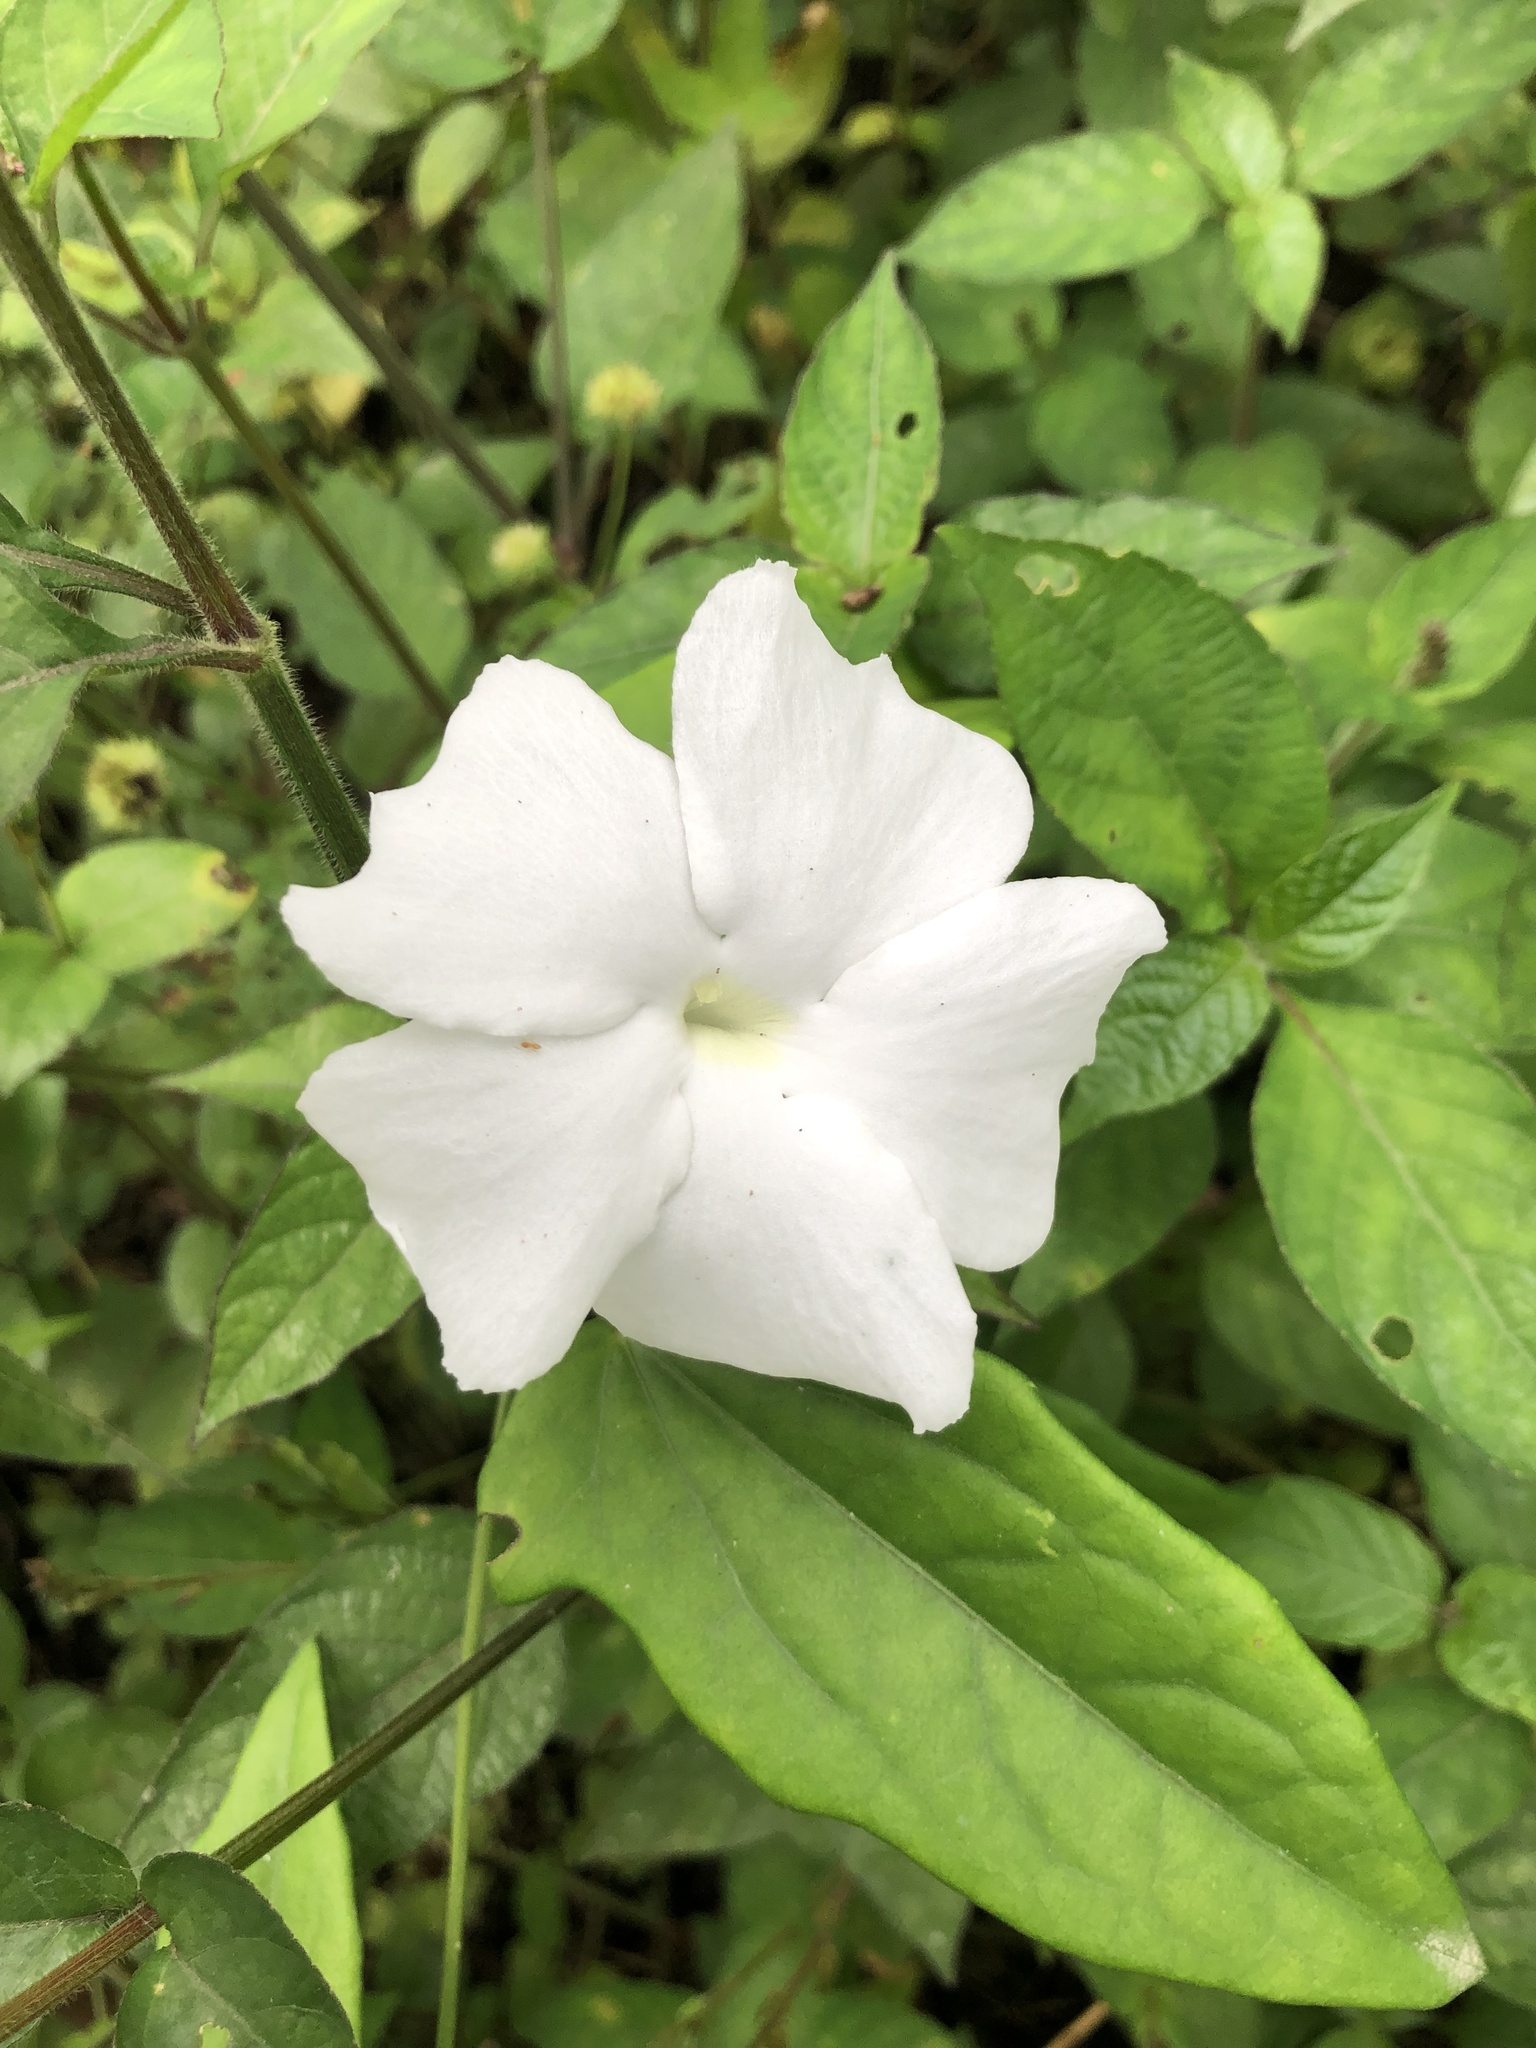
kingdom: Plantae
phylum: Tracheophyta
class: Magnoliopsida
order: Lamiales
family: Acanthaceae
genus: Thunbergia
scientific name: Thunbergia fragrans
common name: Whitelady
